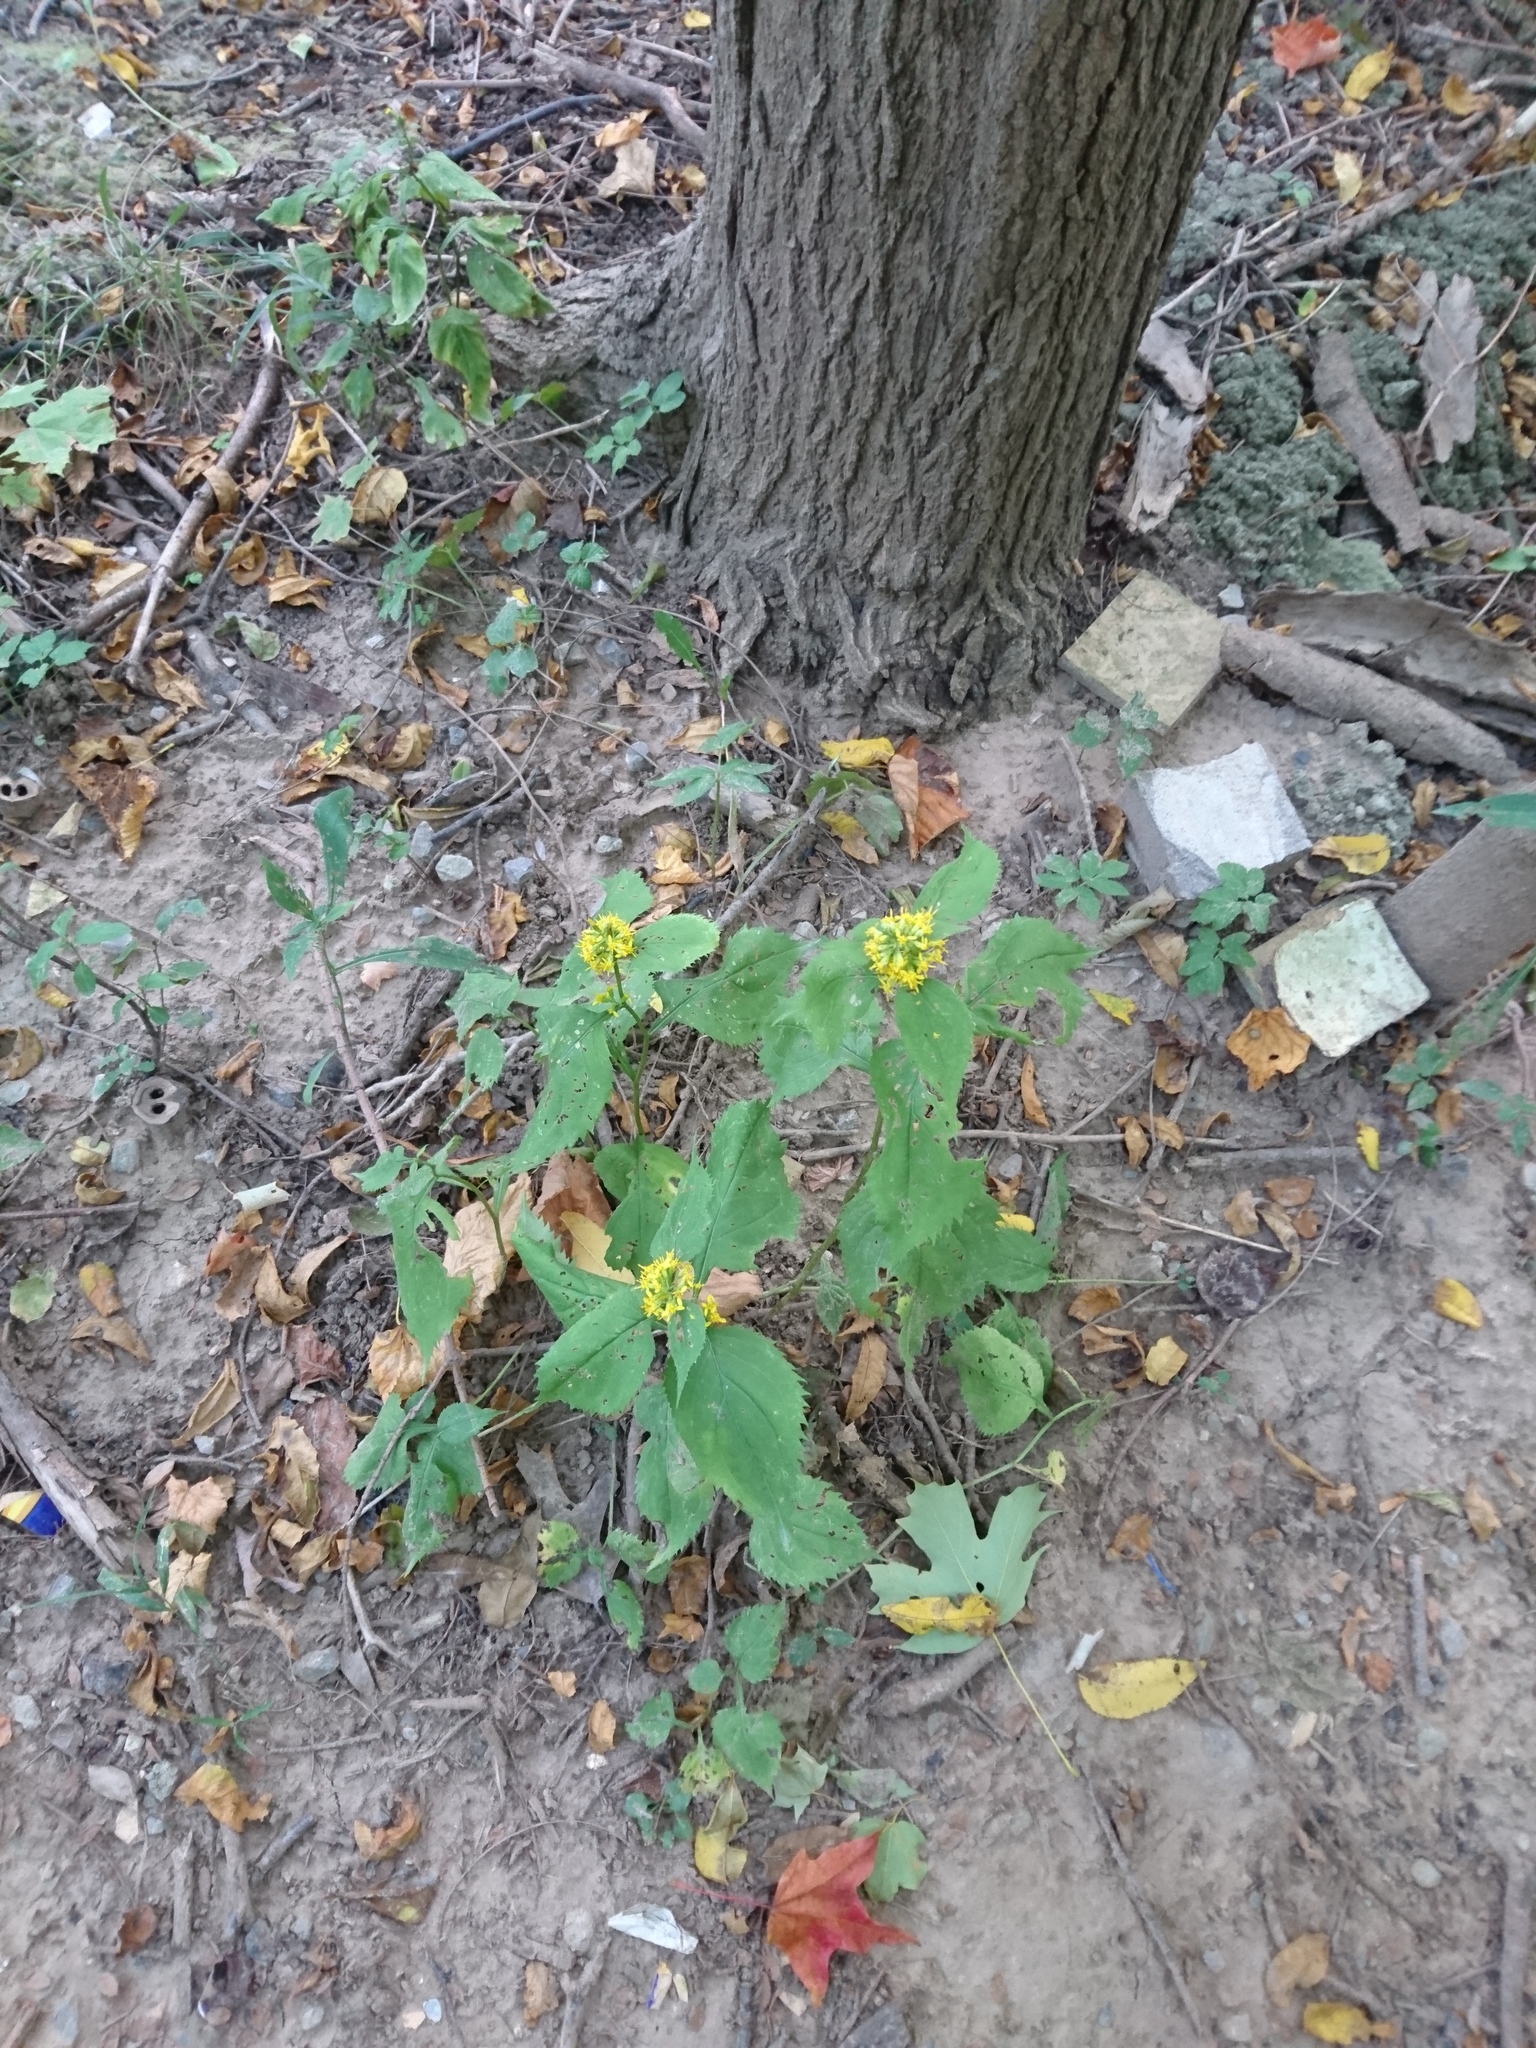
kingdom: Plantae
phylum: Tracheophyta
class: Magnoliopsida
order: Asterales
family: Asteraceae
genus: Solidago
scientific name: Solidago flexicaulis
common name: Zig-zag goldenrod
